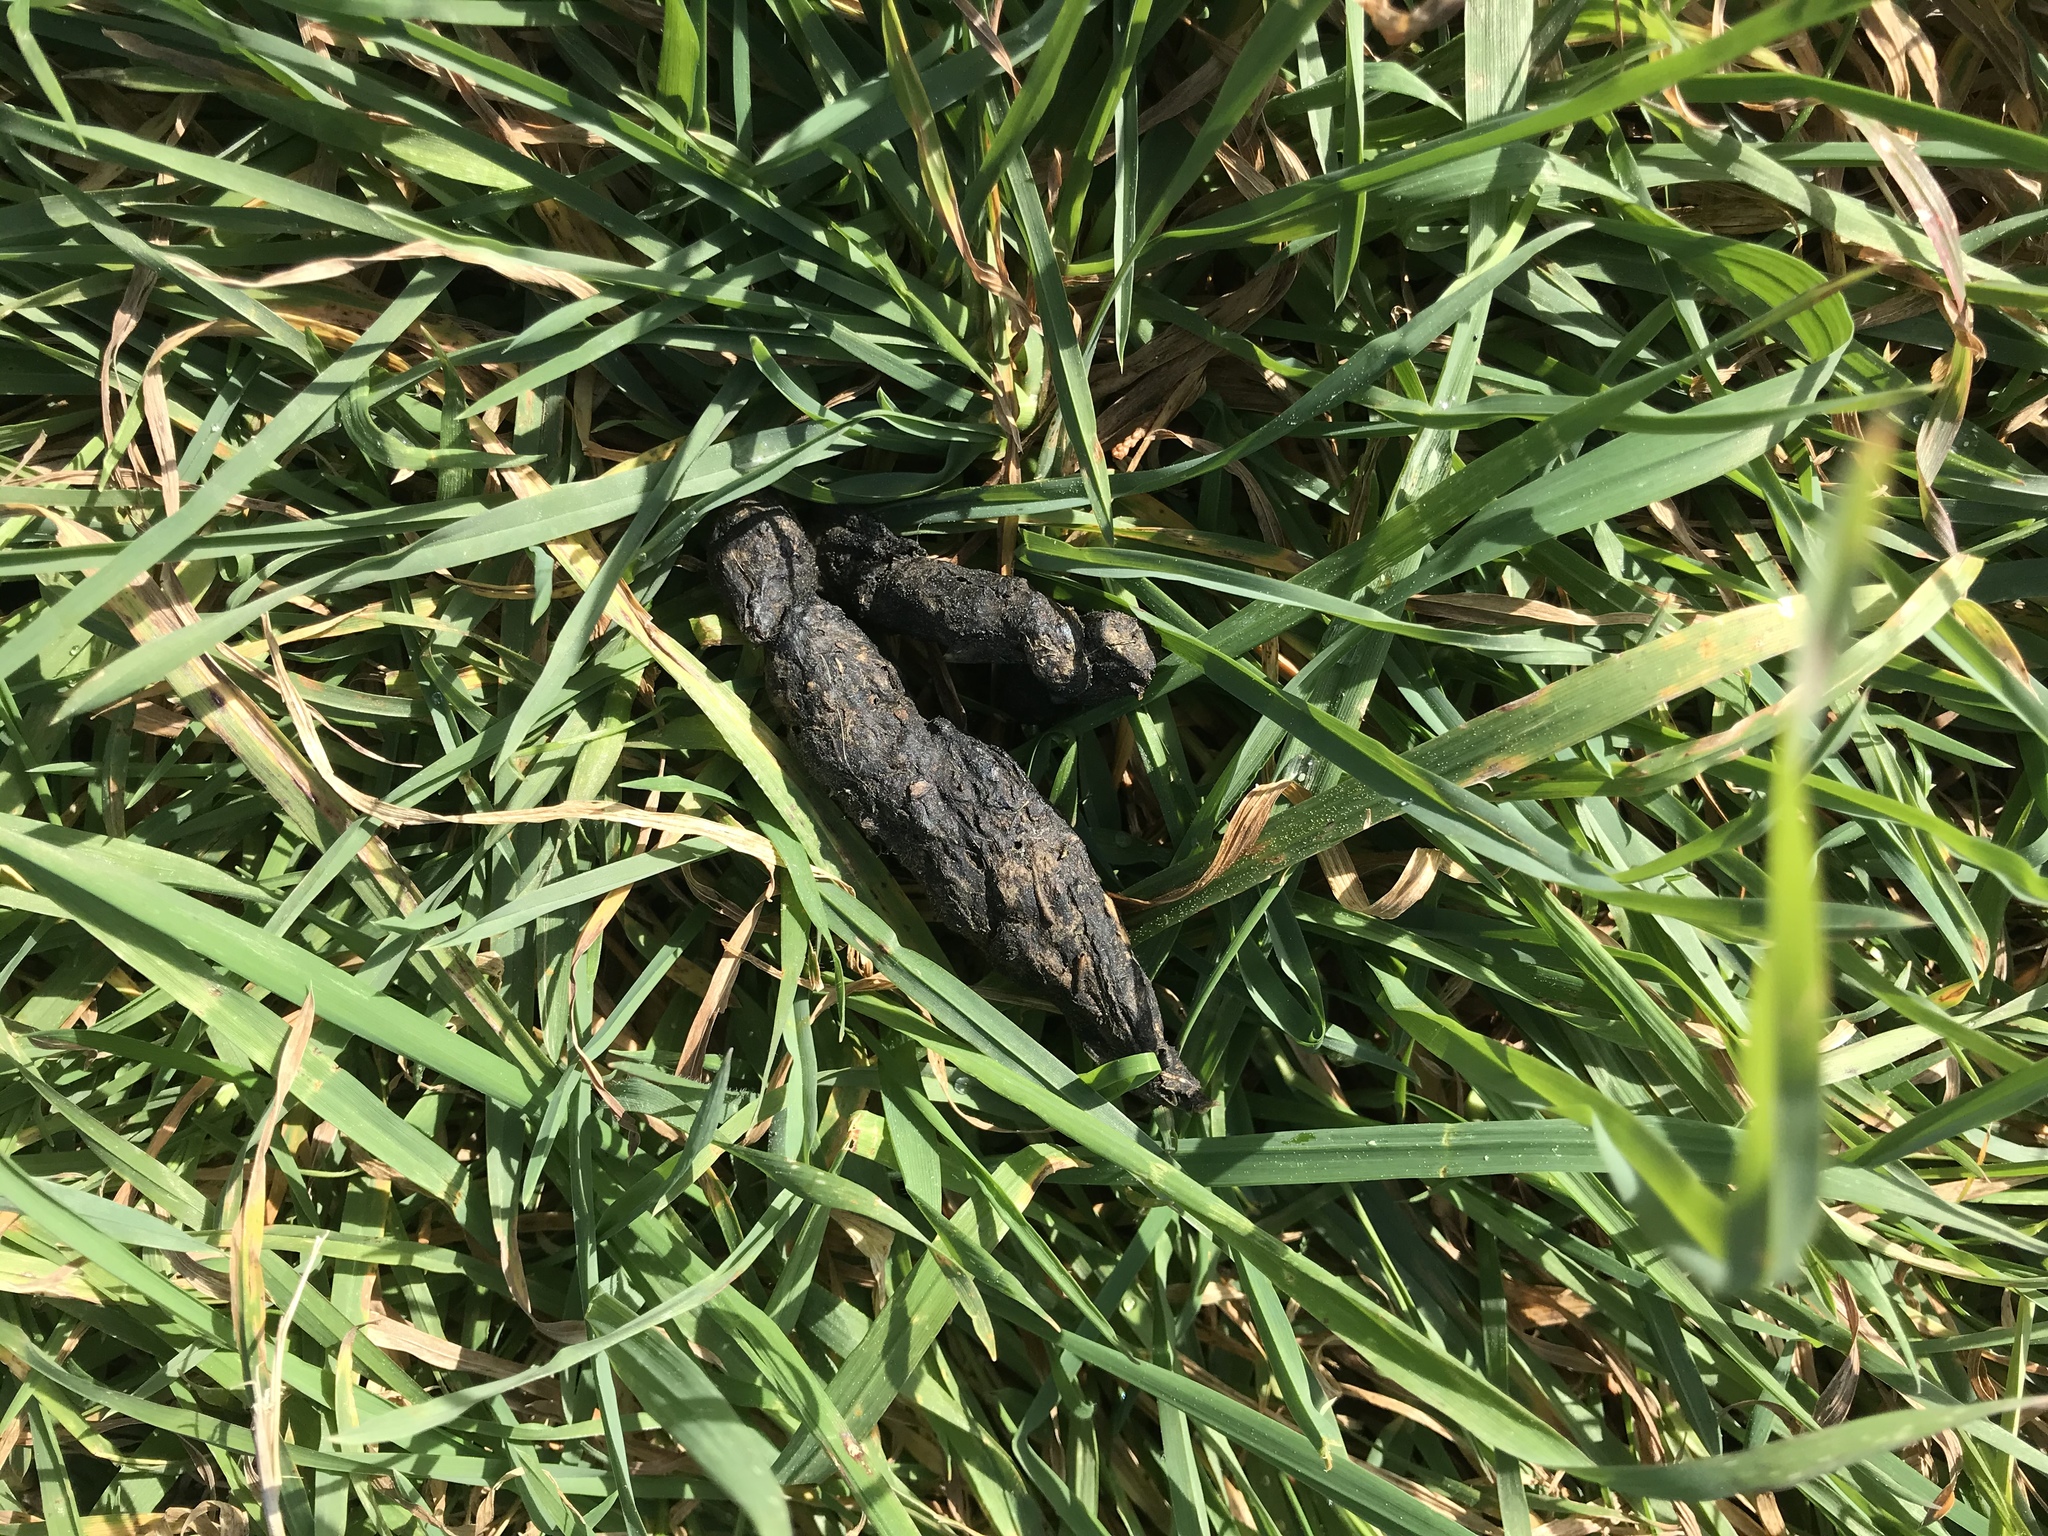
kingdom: Animalia
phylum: Chordata
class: Mammalia
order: Carnivora
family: Felidae
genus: Felis
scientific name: Felis catus
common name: Domestic cat
